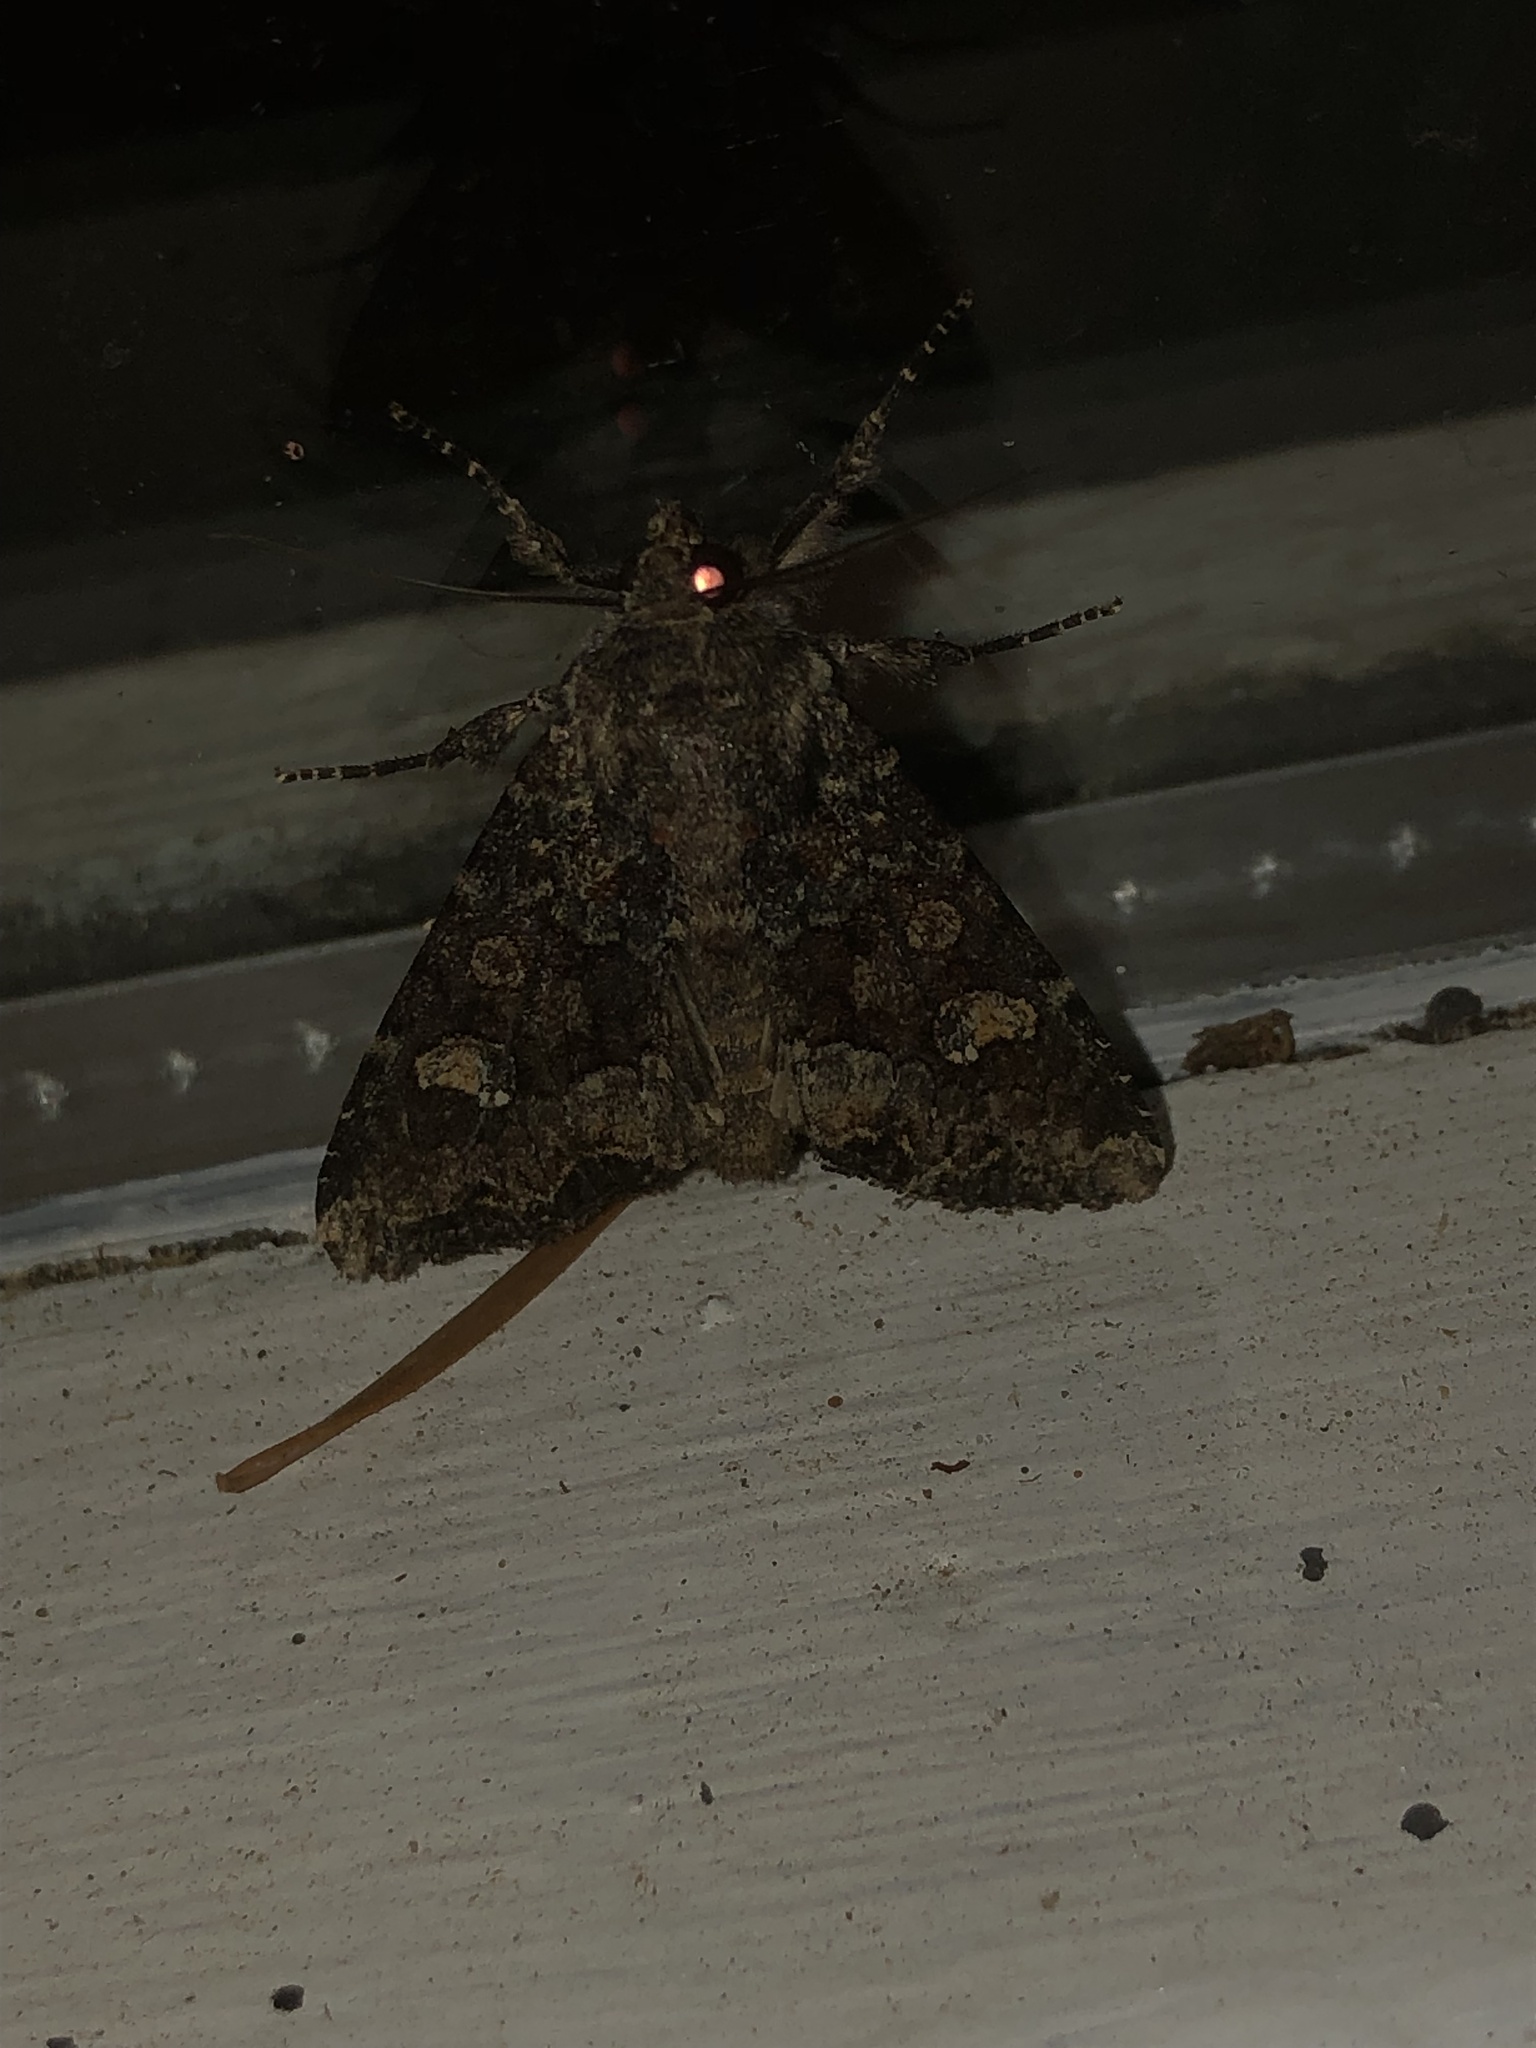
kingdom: Animalia
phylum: Arthropoda
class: Insecta
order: Lepidoptera
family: Noctuidae
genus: Apamea
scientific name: Apamea amputatrix
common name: Yellow-headed cutworm moth
